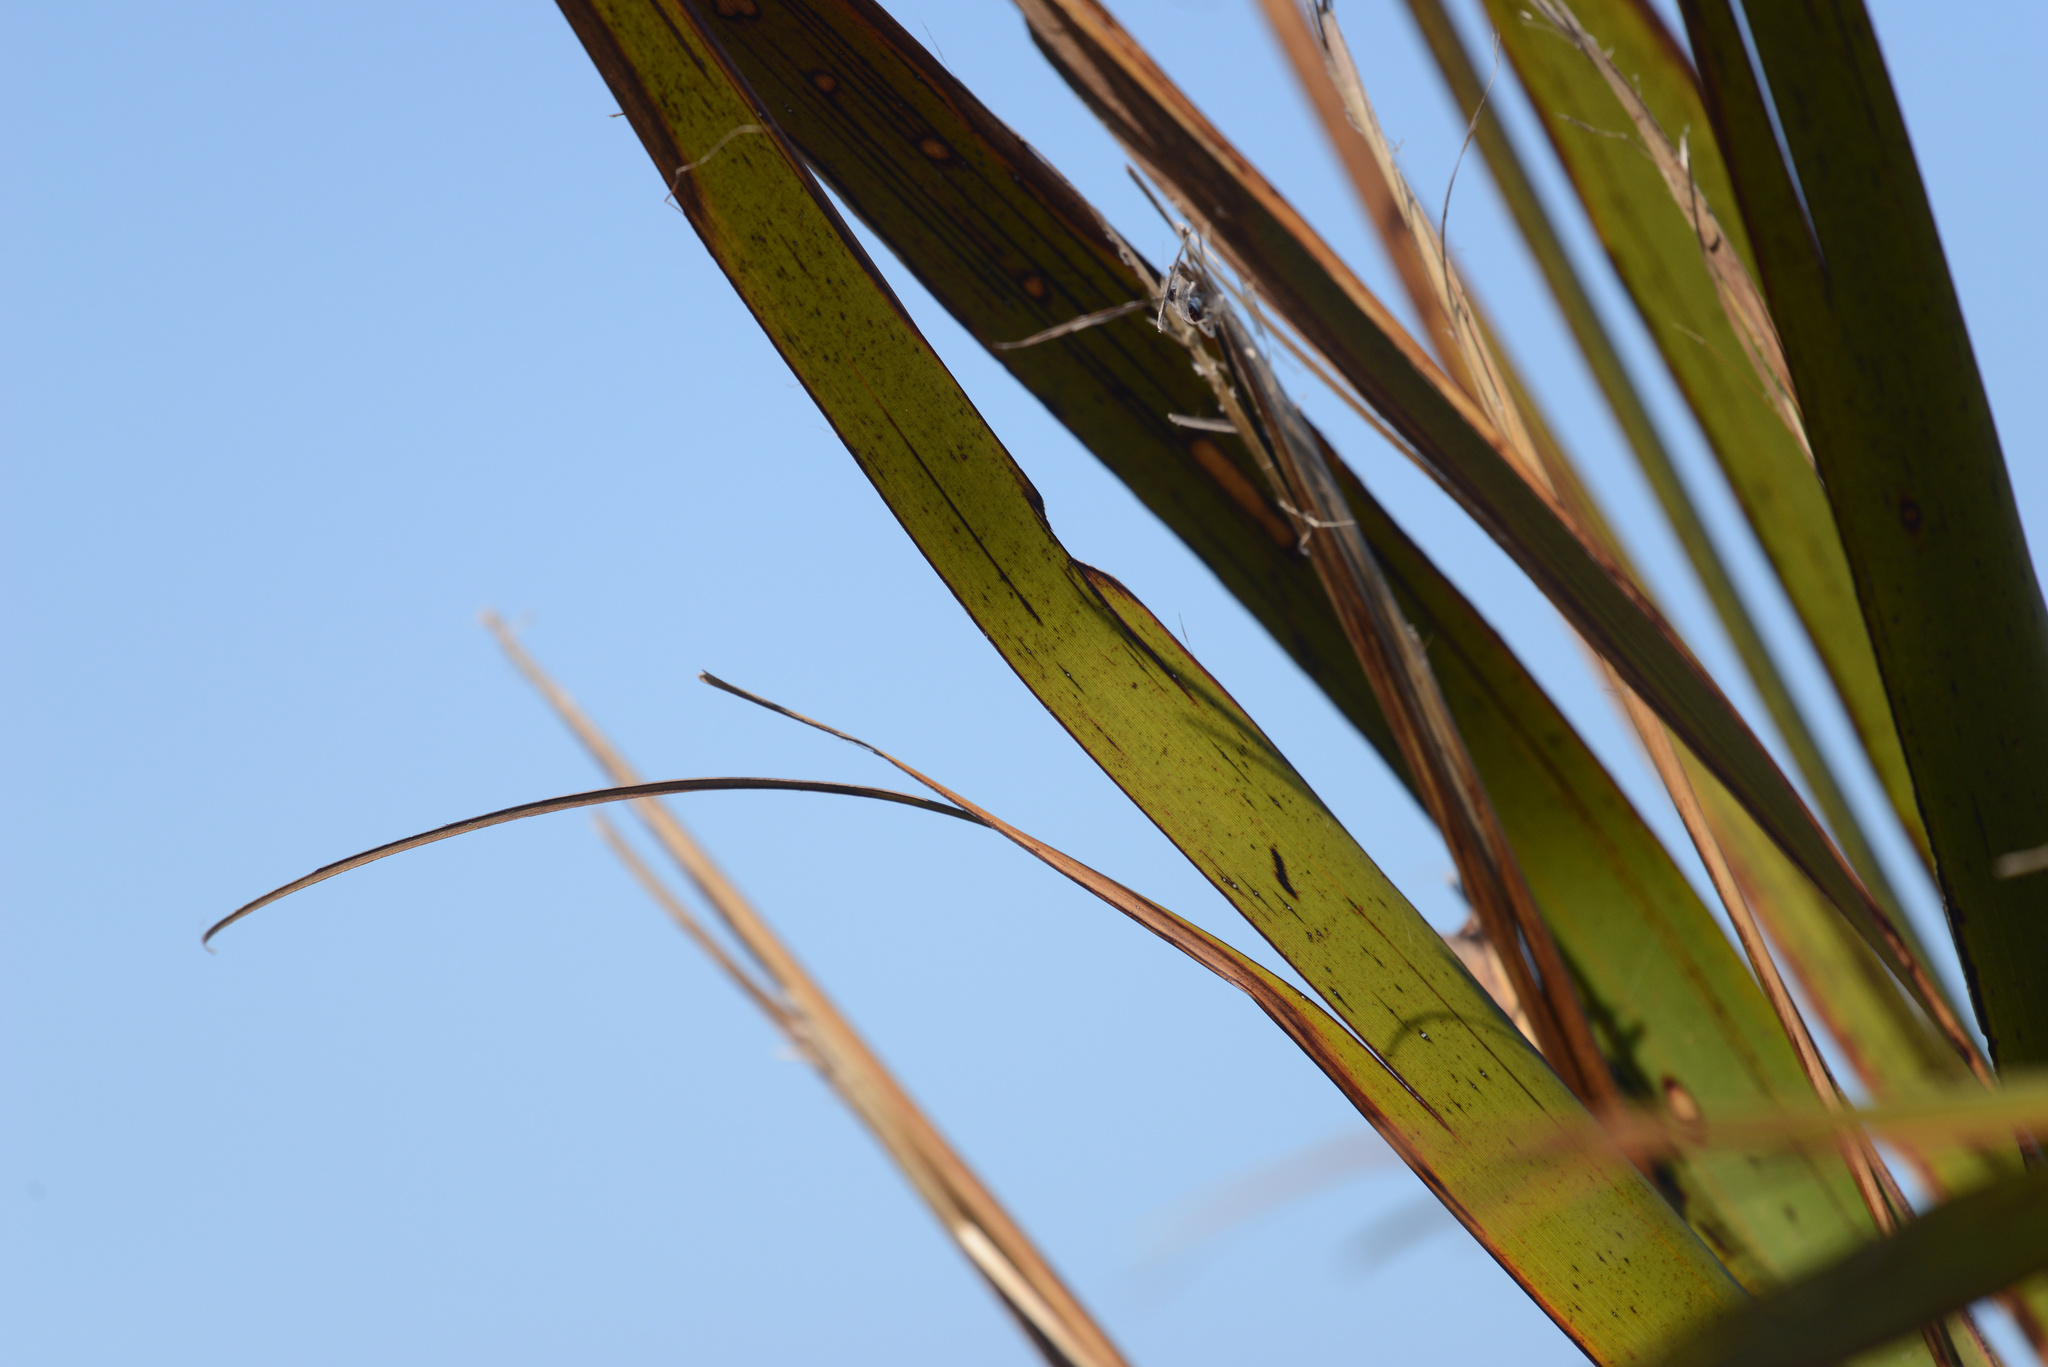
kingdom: Animalia
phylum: Arthropoda
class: Insecta
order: Lepidoptera
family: Noctuidae
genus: Ichneutica
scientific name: Ichneutica
